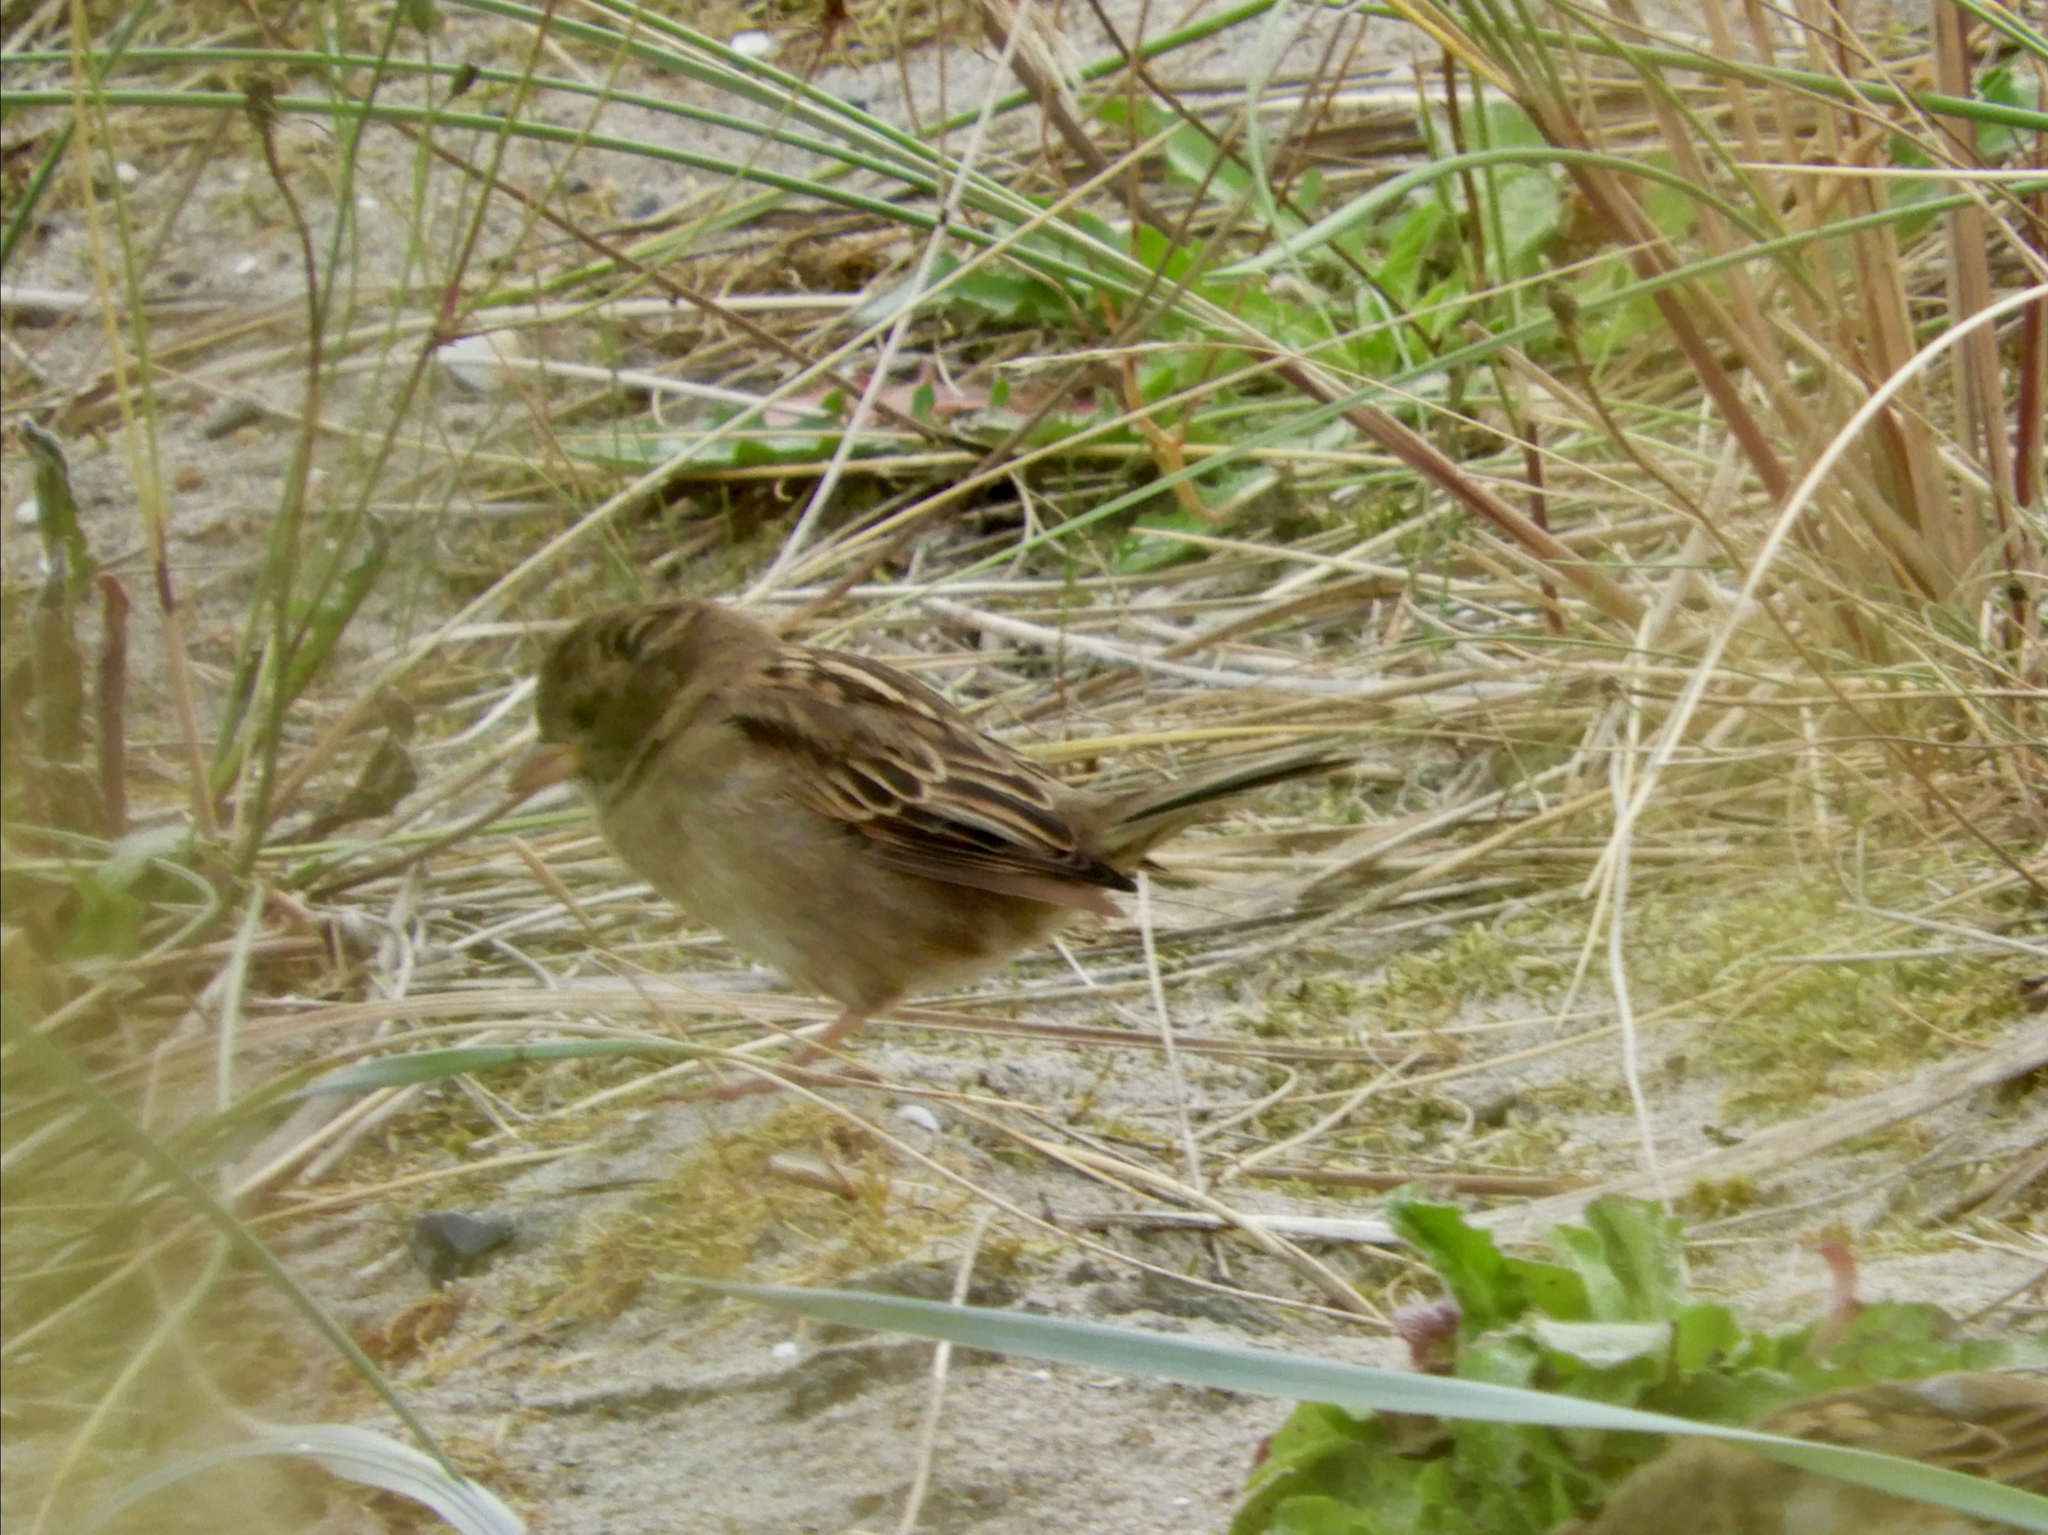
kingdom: Animalia
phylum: Chordata
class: Aves
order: Passeriformes
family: Passeridae
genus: Passer
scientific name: Passer domesticus
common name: House sparrow
